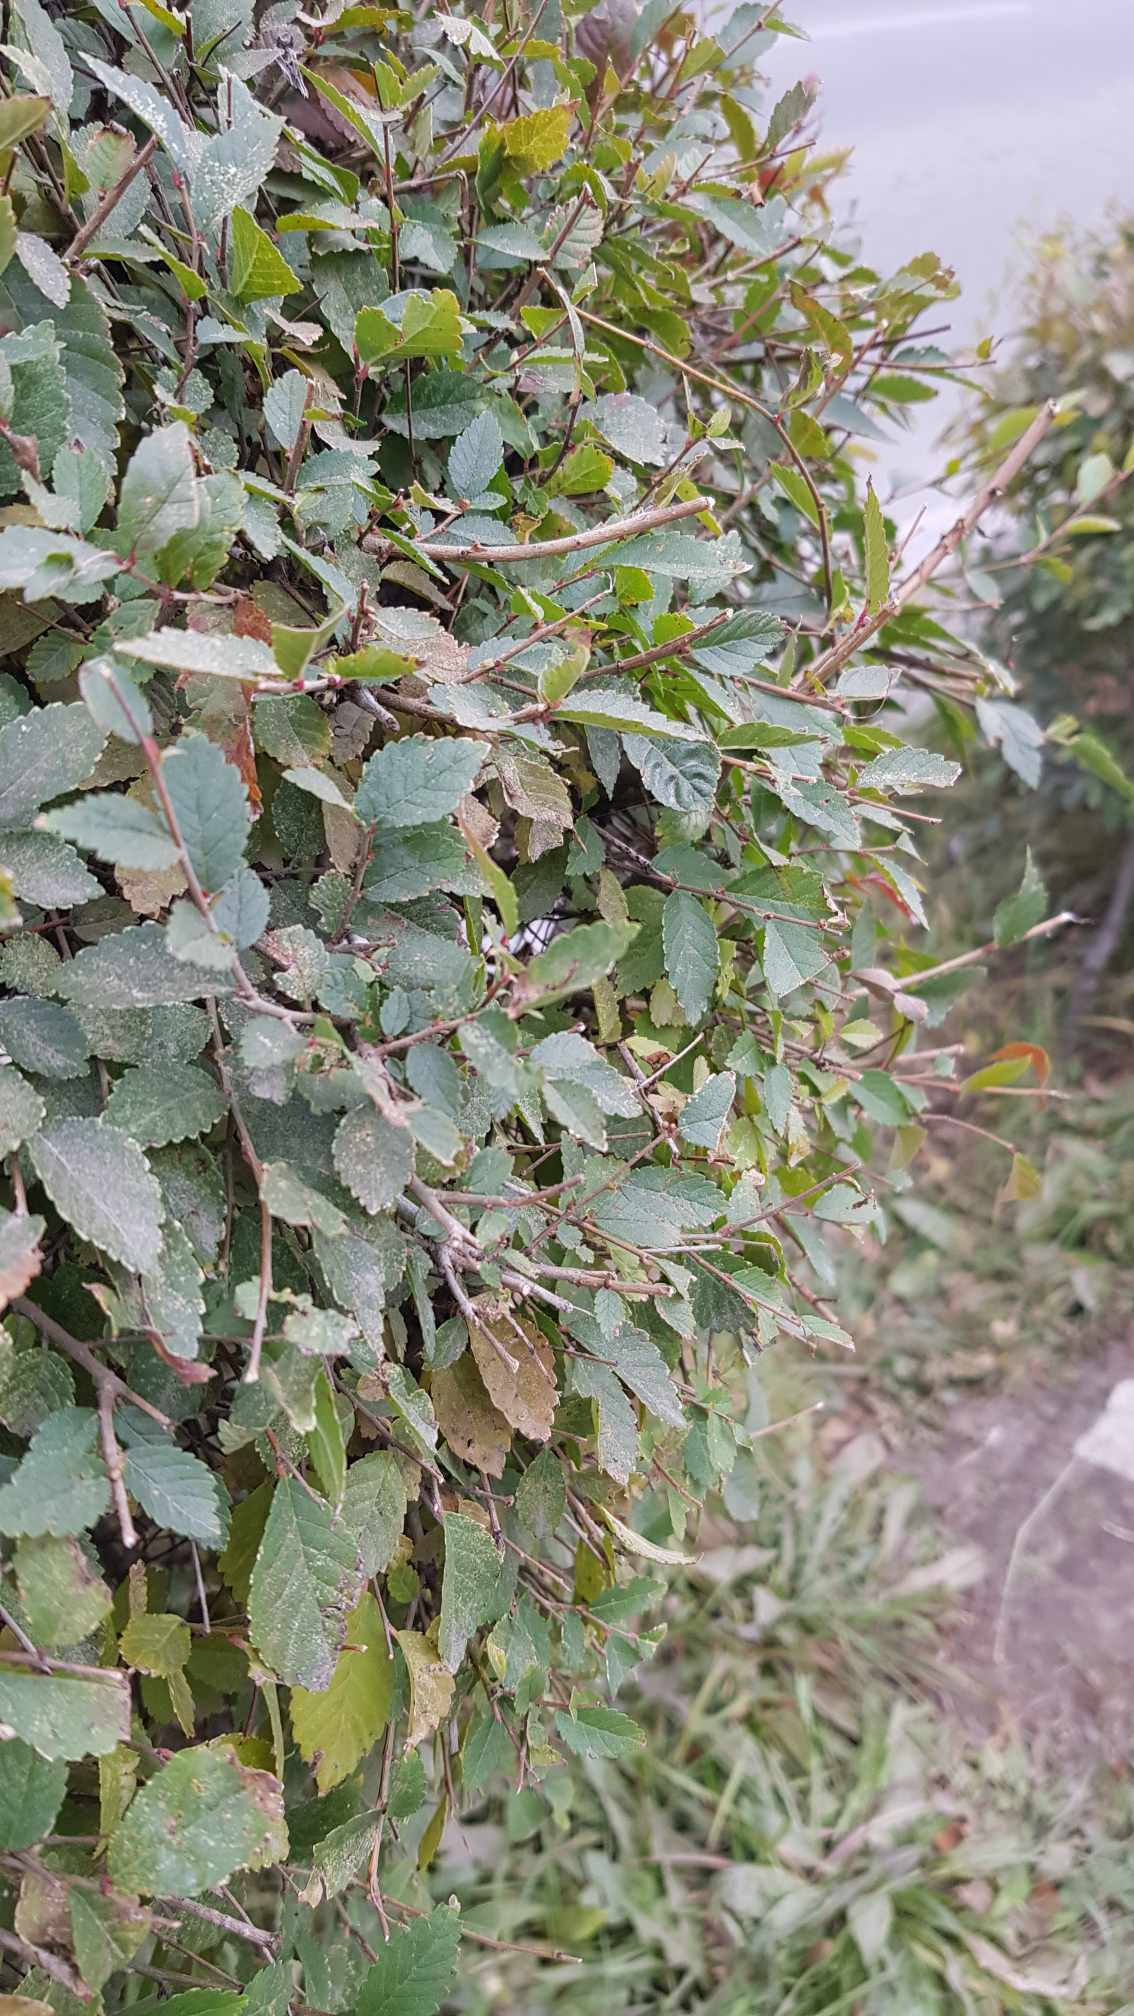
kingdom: Plantae
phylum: Tracheophyta
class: Magnoliopsida
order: Rosales
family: Ulmaceae
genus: Ulmus
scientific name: Ulmus pumila
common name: Siberian elm
